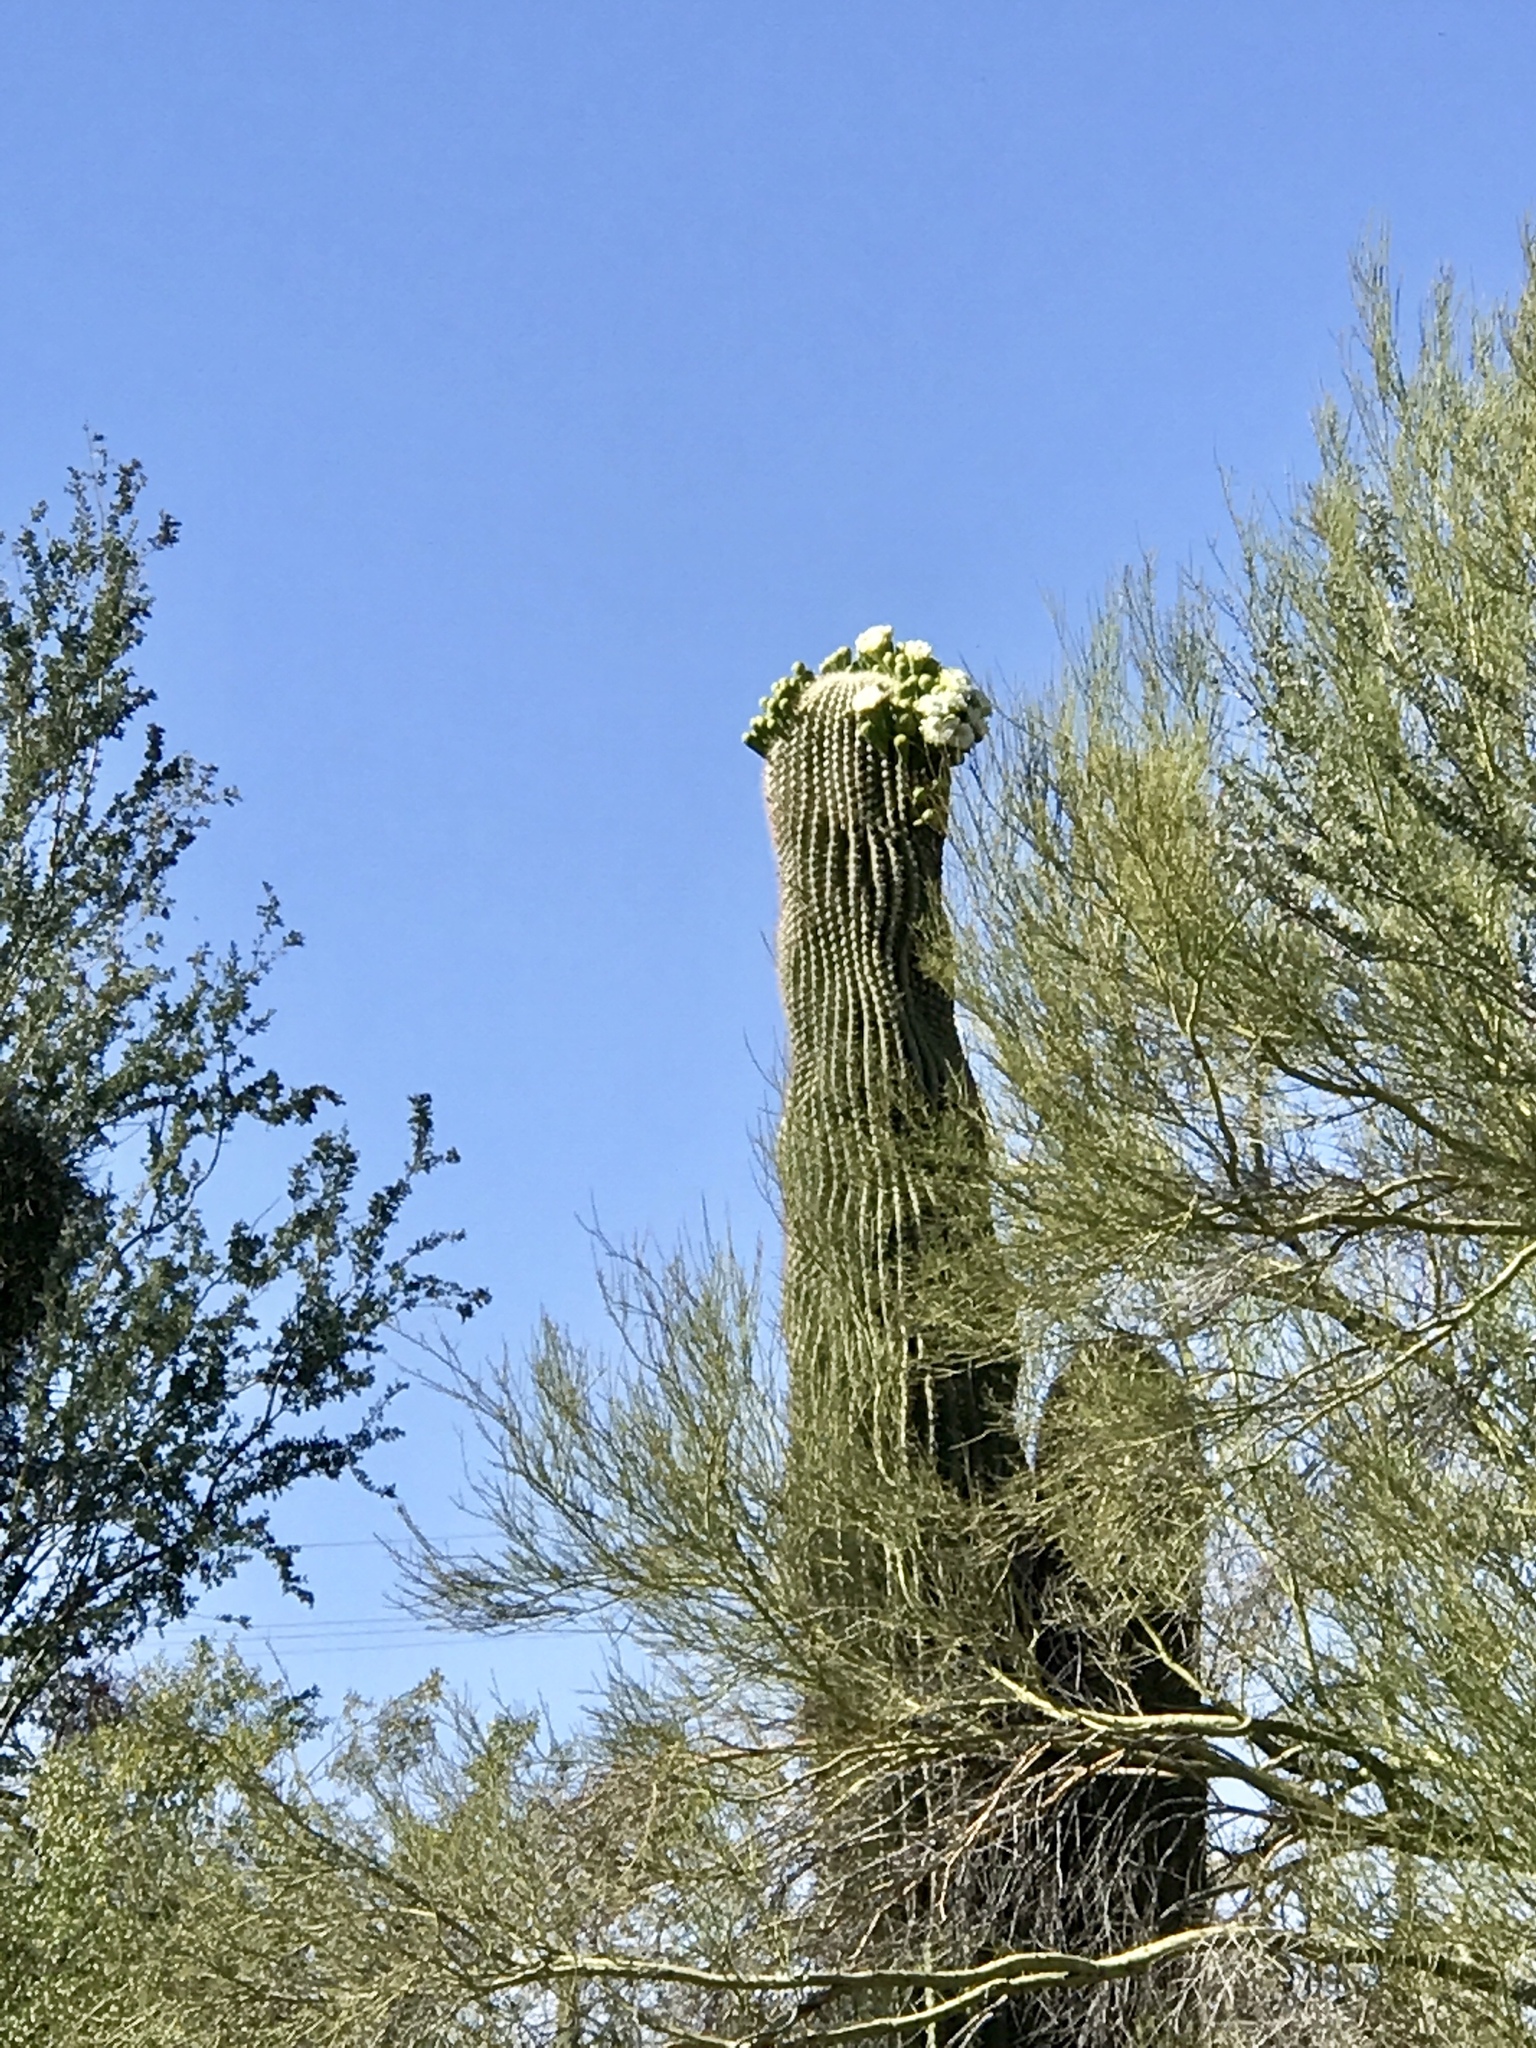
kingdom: Plantae
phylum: Tracheophyta
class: Magnoliopsida
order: Caryophyllales
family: Cactaceae
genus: Carnegiea
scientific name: Carnegiea gigantea
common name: Saguaro
